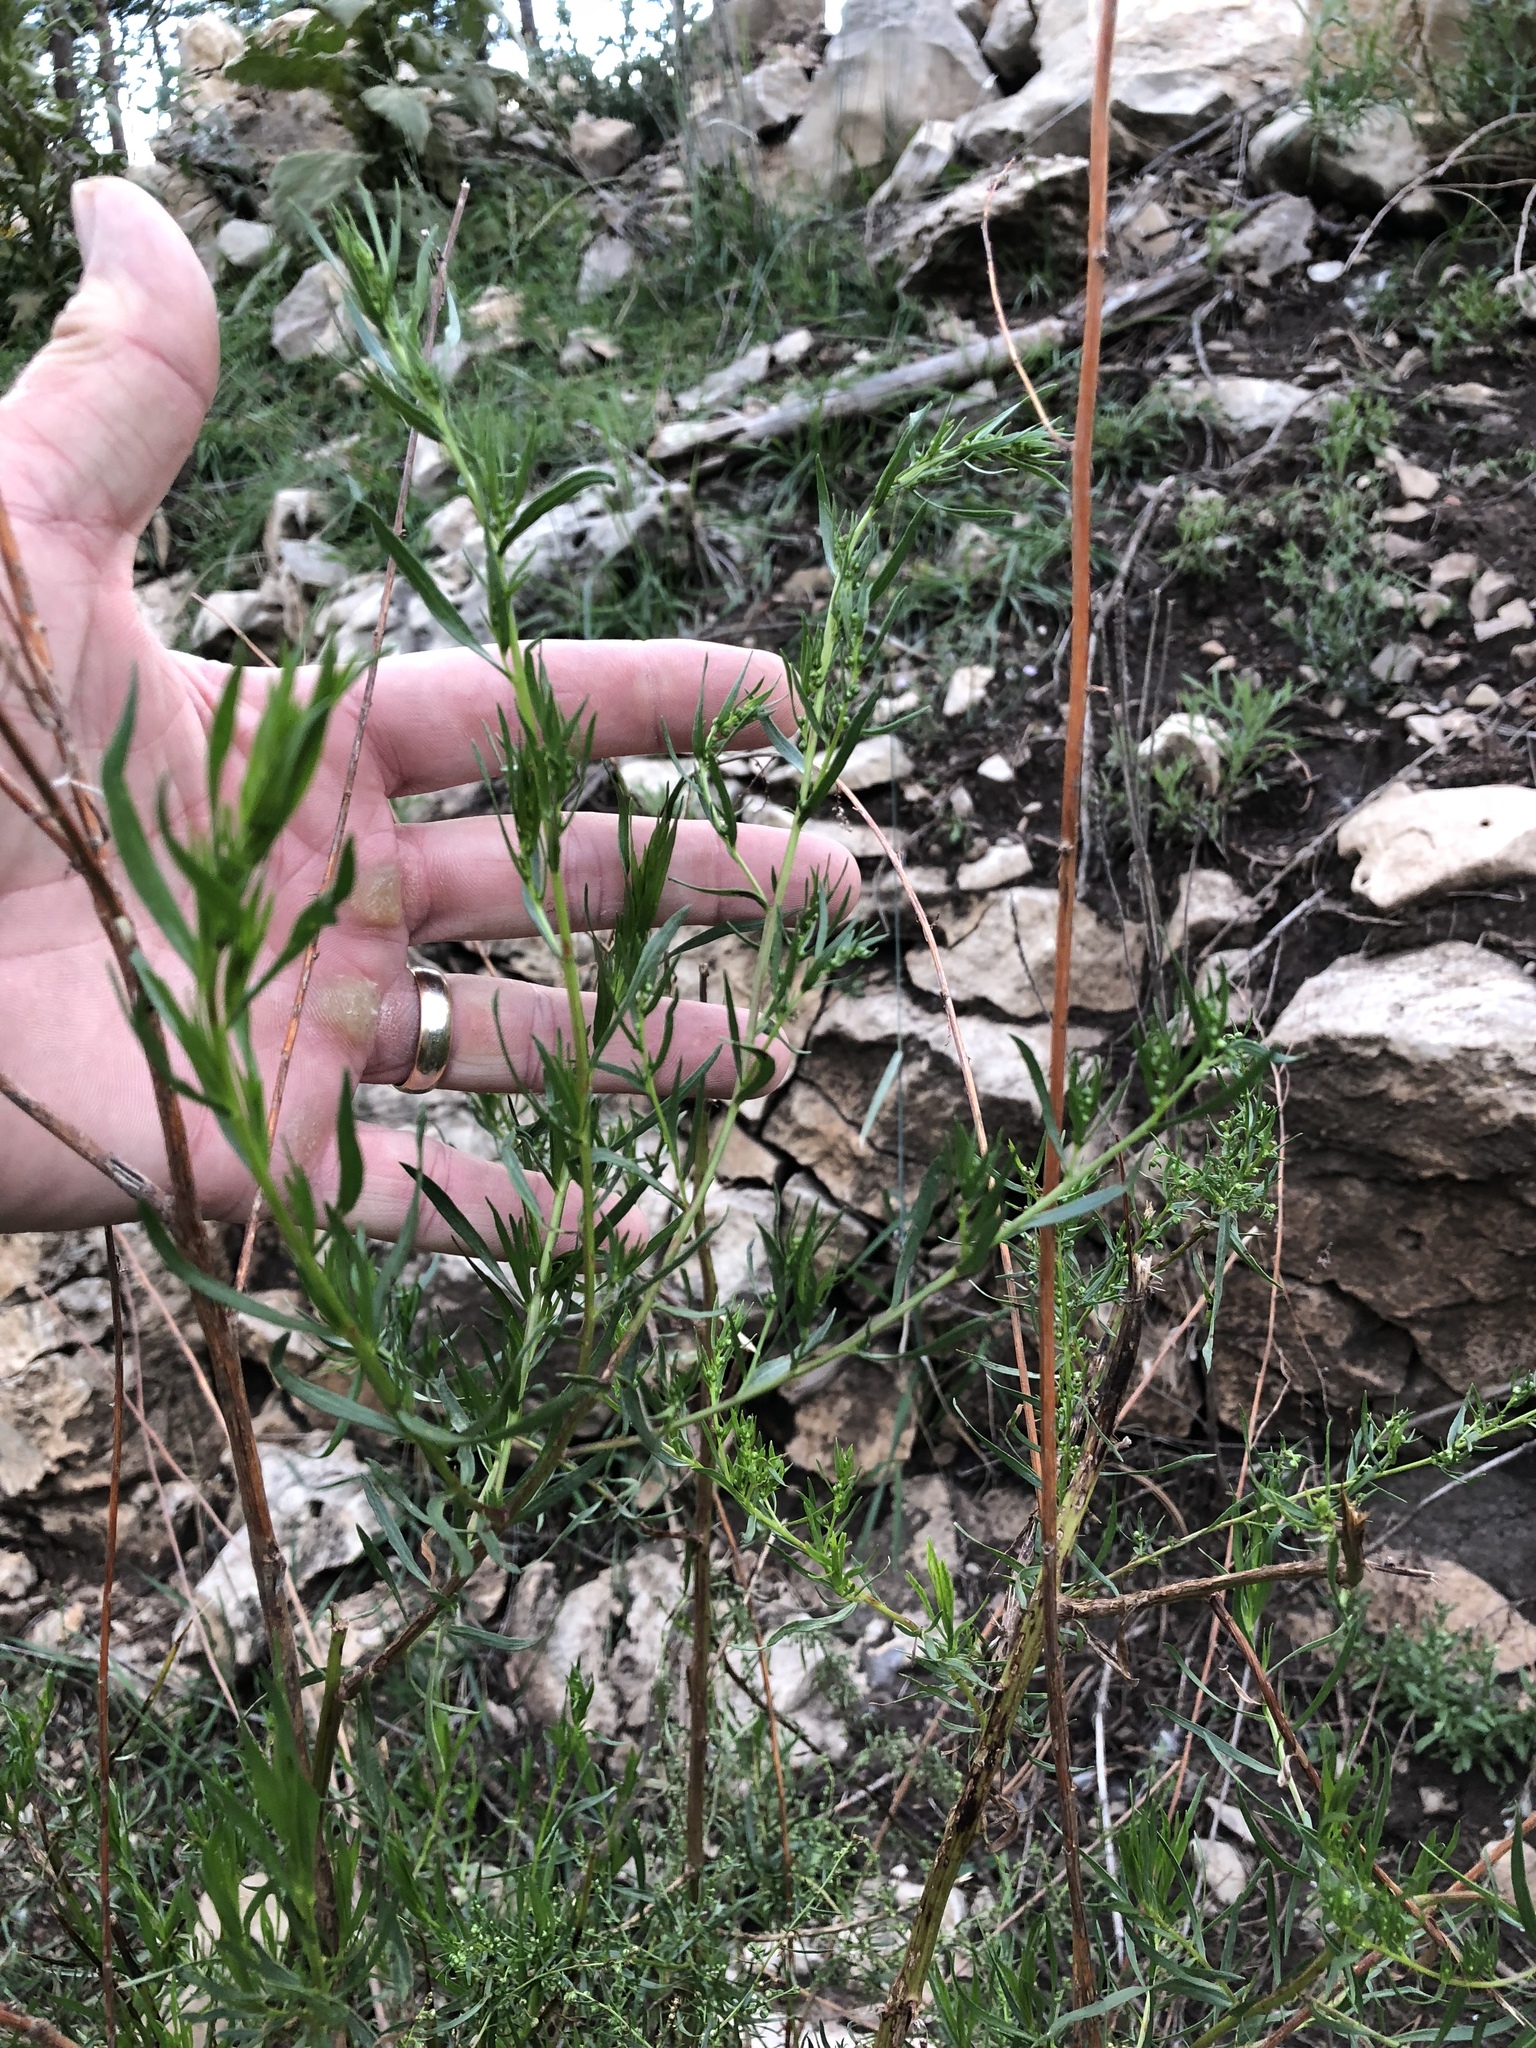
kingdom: Plantae
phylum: Tracheophyta
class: Magnoliopsida
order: Asterales
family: Asteraceae
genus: Artemisia
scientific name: Artemisia dracunculus
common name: Tarragon
